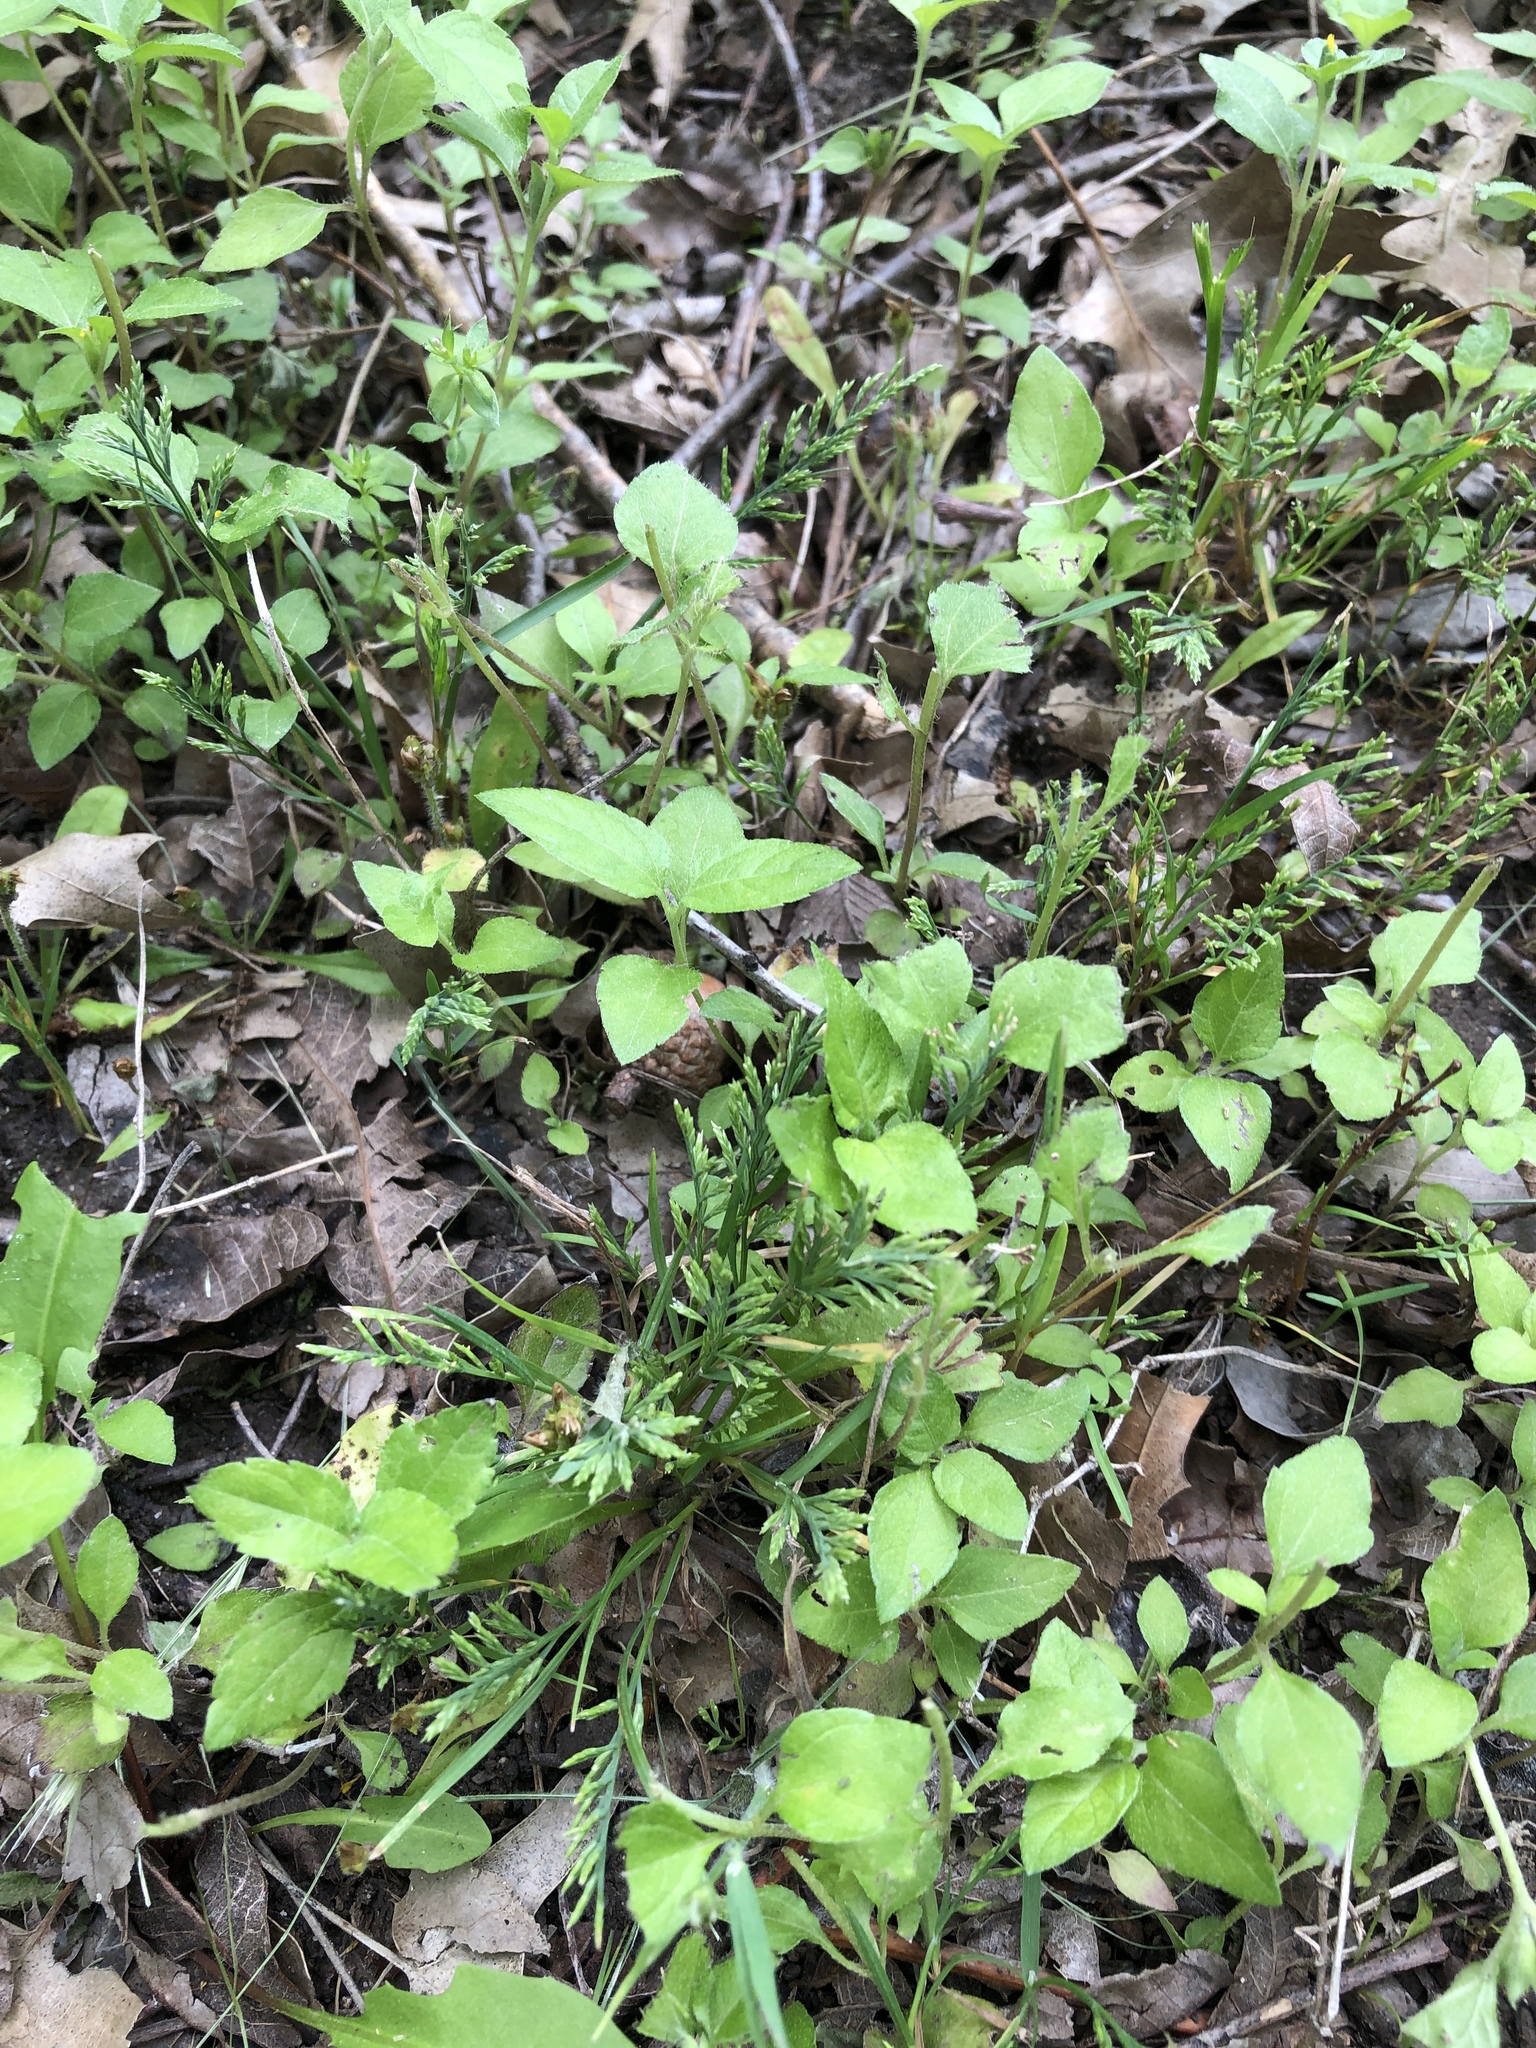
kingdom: Plantae
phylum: Tracheophyta
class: Liliopsida
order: Poales
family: Poaceae
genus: Catapodium
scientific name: Catapodium rigidum
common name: Fern-grass
